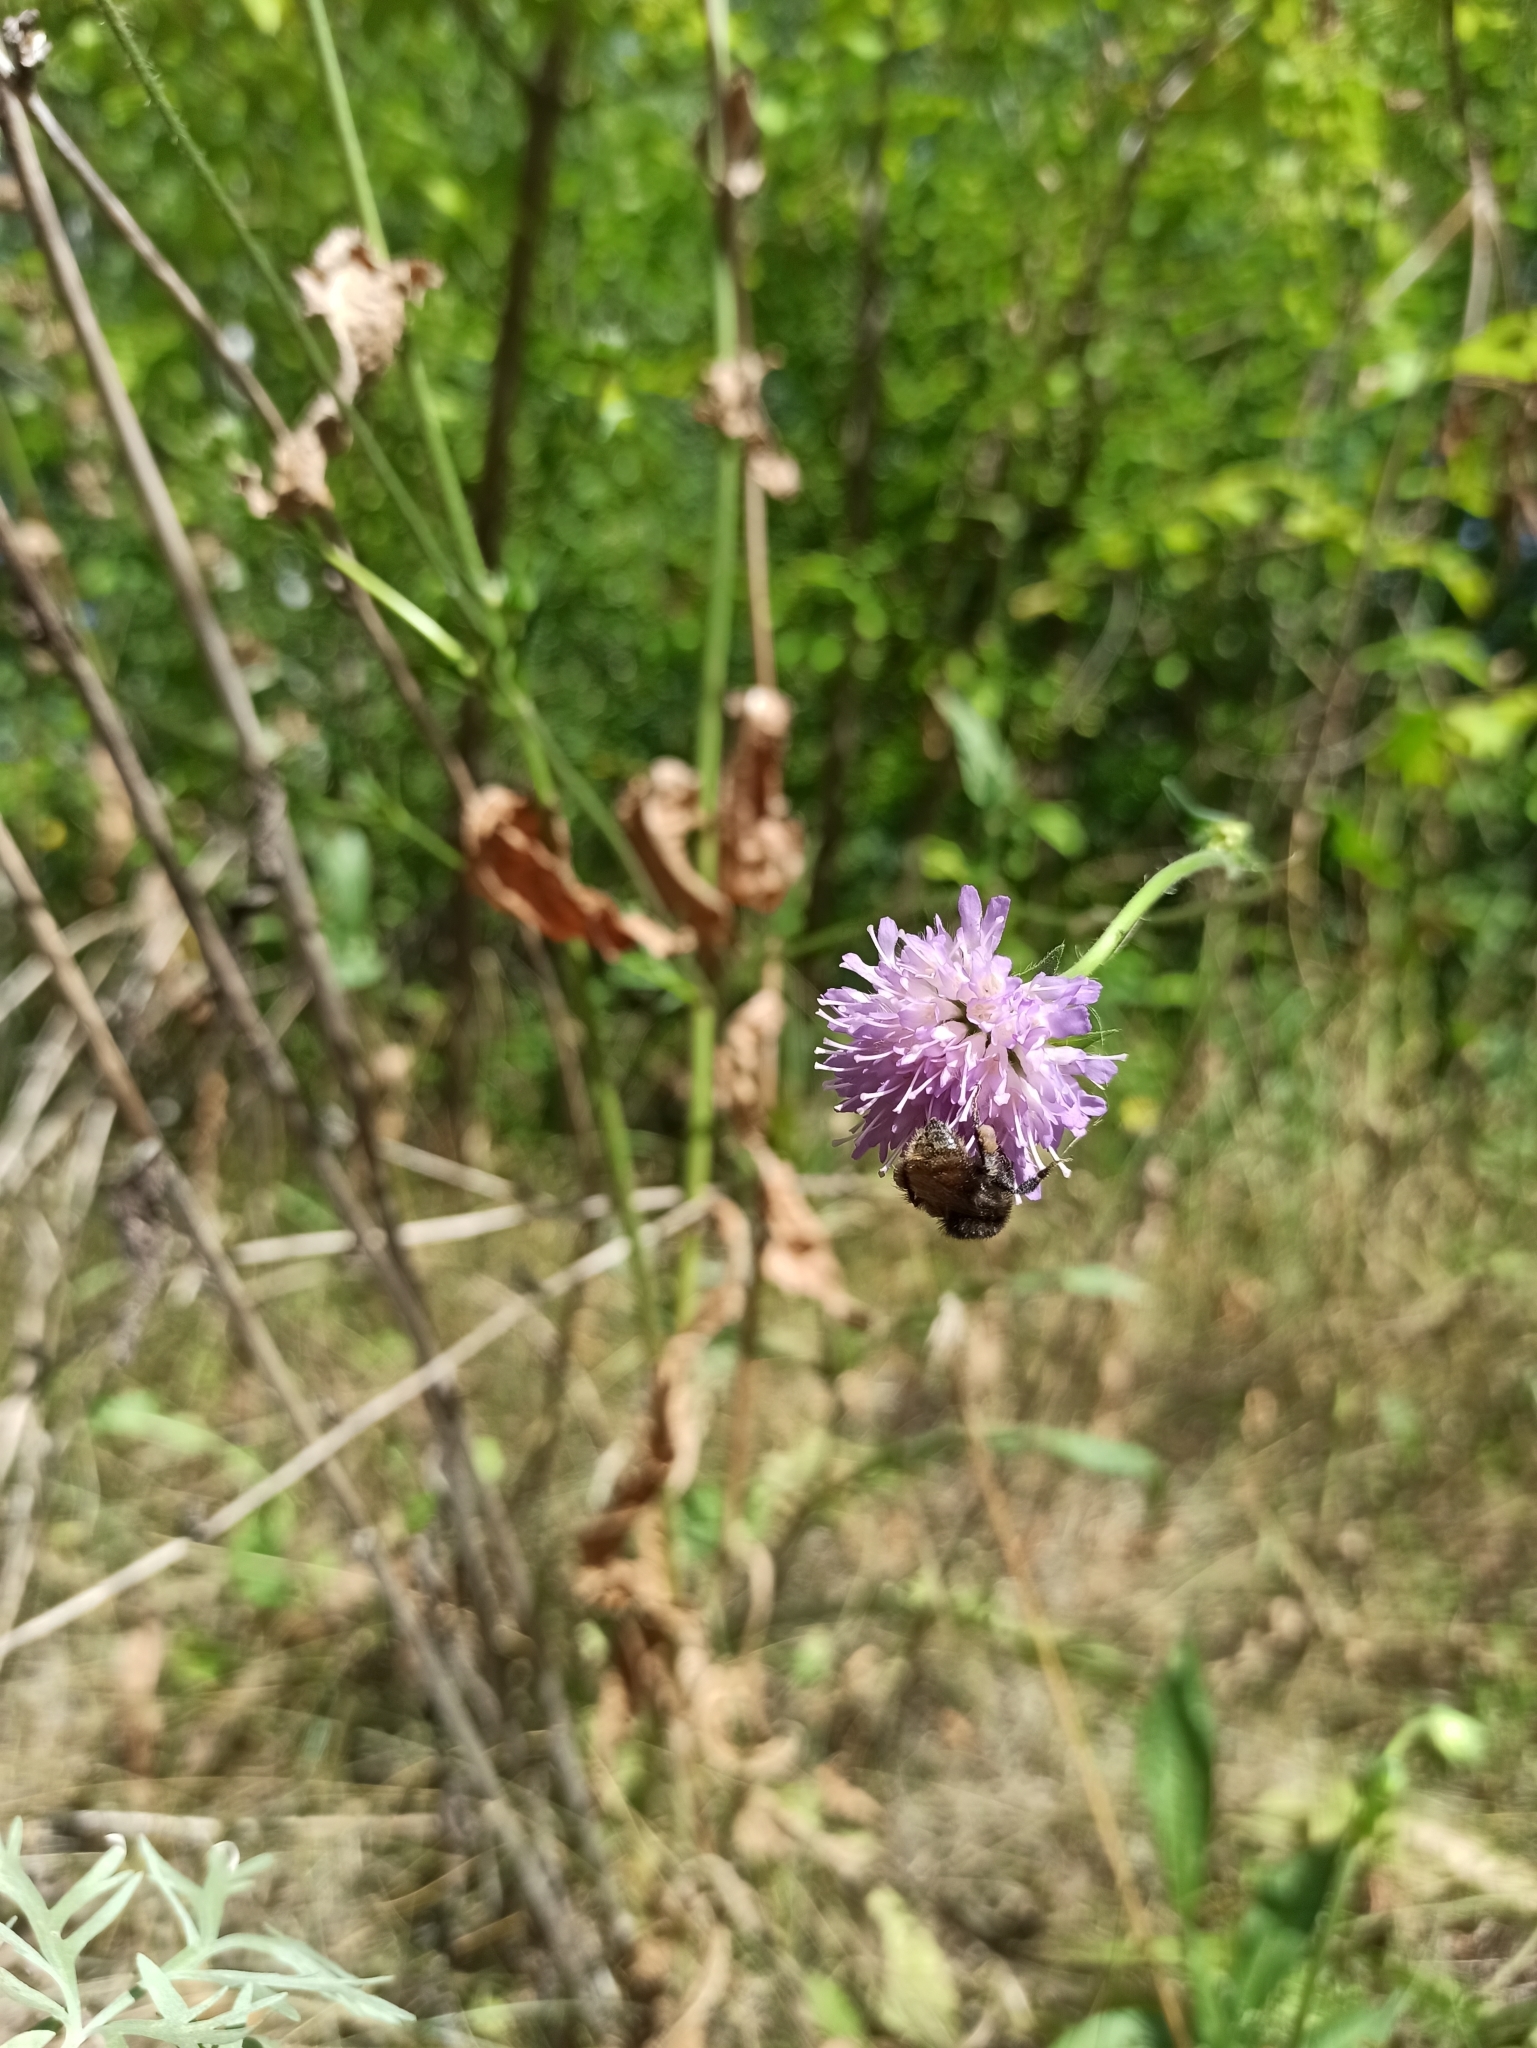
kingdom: Plantae
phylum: Tracheophyta
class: Magnoliopsida
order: Dipsacales
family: Caprifoliaceae
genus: Knautia
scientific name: Knautia arvensis
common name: Field scabiosa
